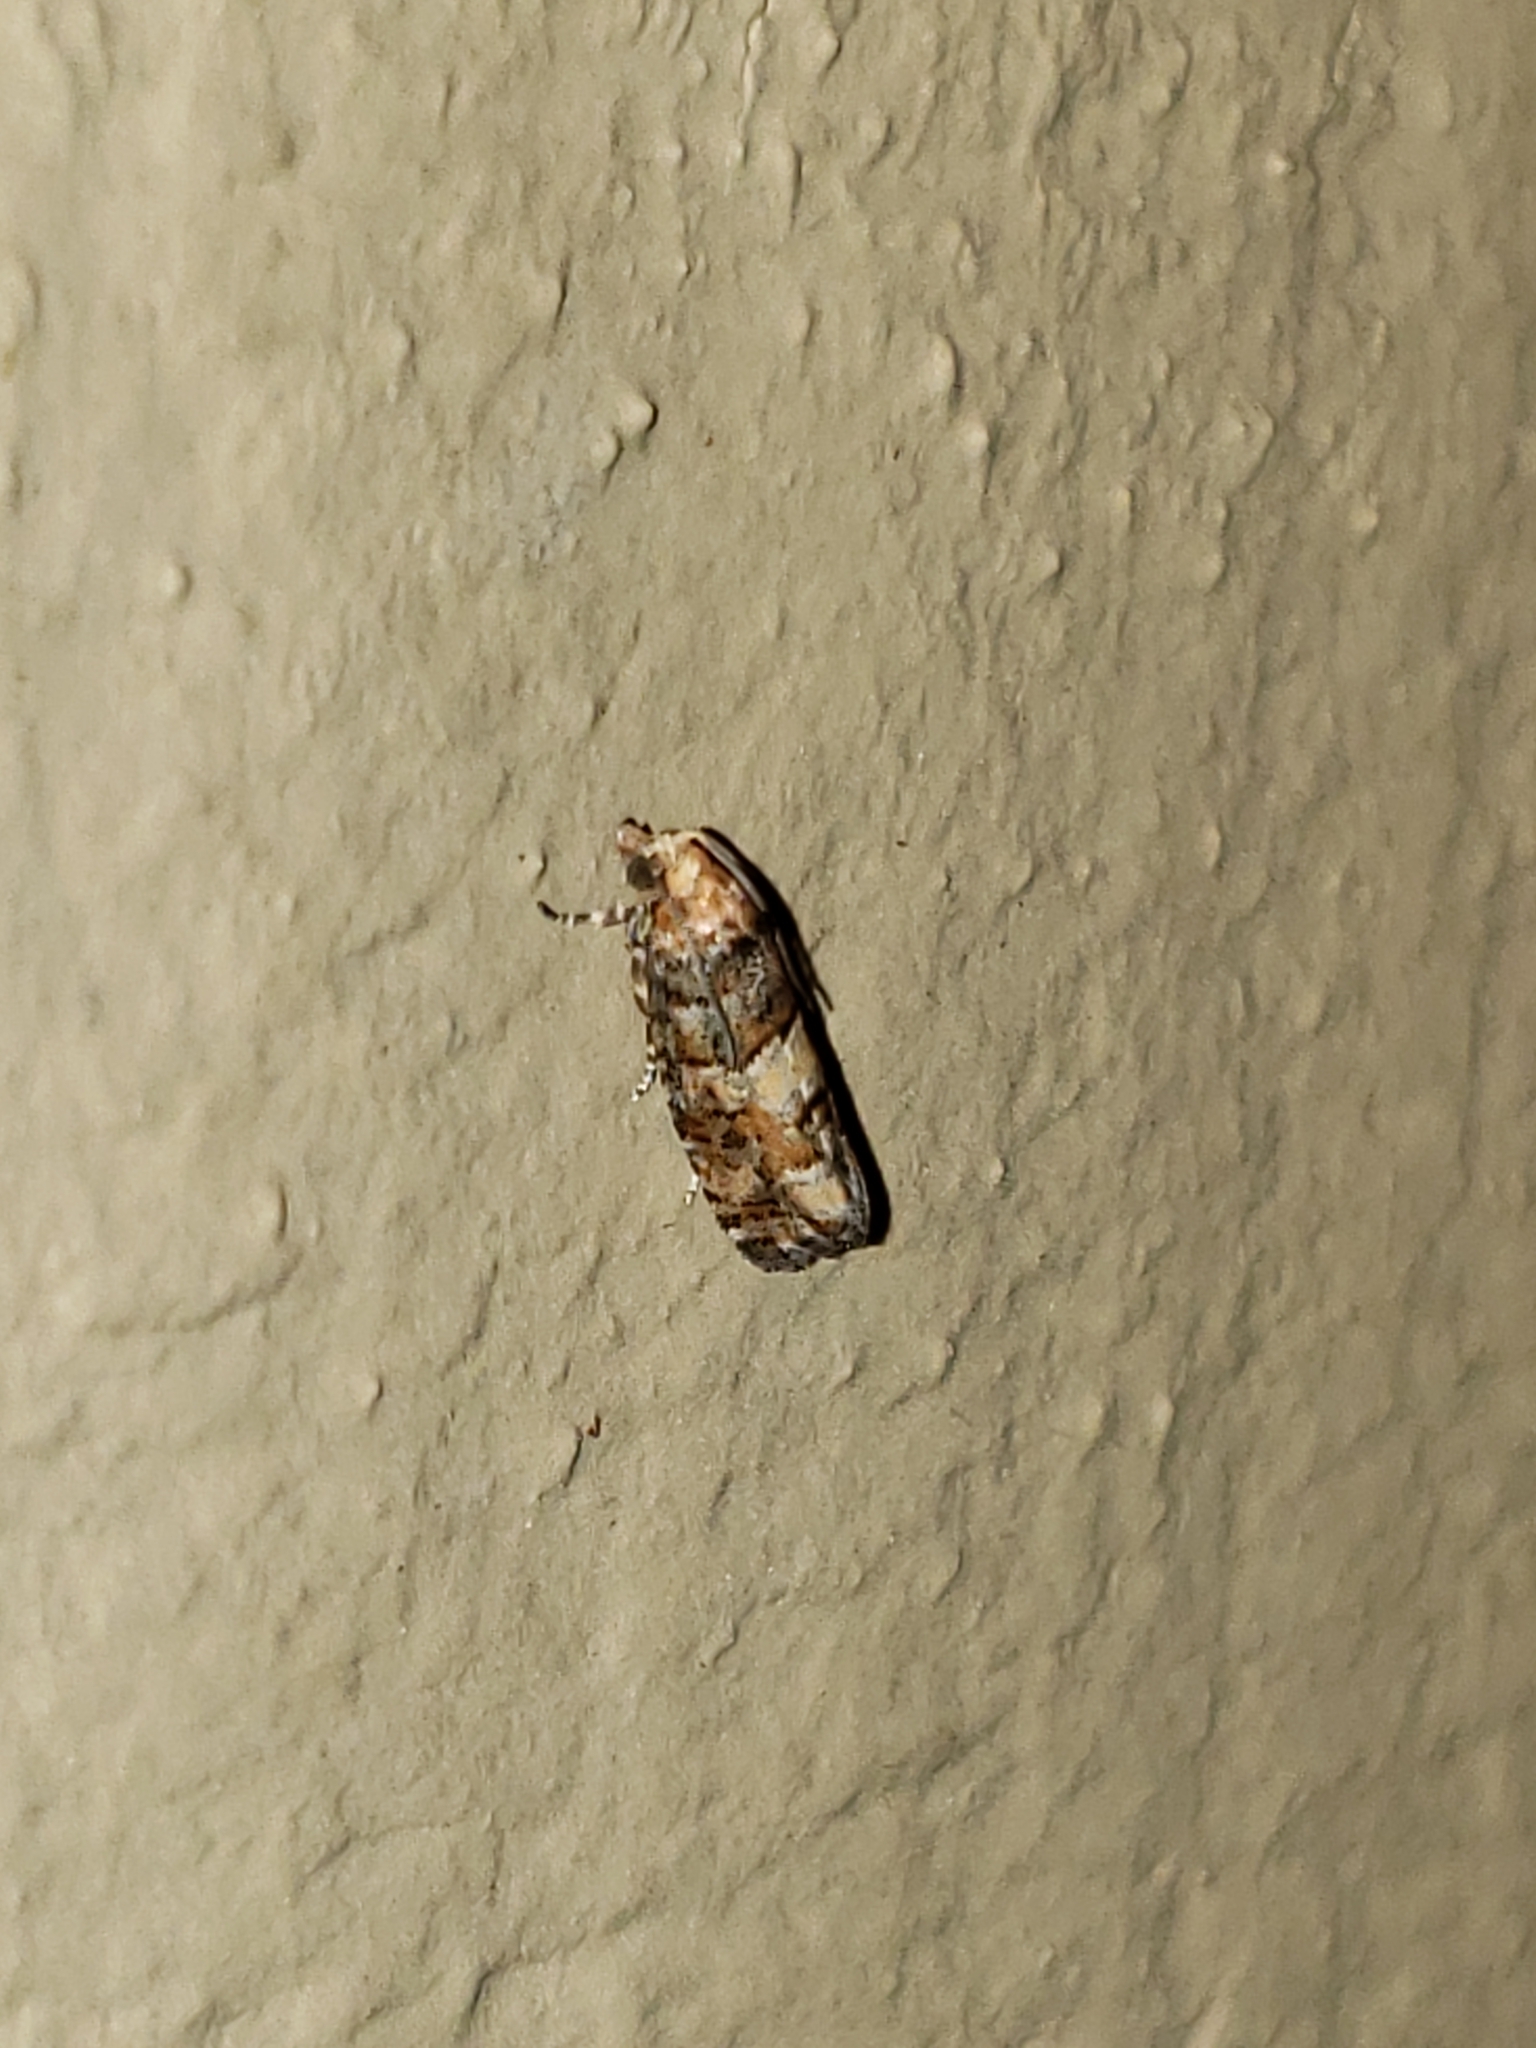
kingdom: Animalia
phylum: Arthropoda
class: Insecta
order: Lepidoptera
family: Tortricidae
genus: Eucopina
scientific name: Eucopina tocullionana
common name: White pinecone borer moth
